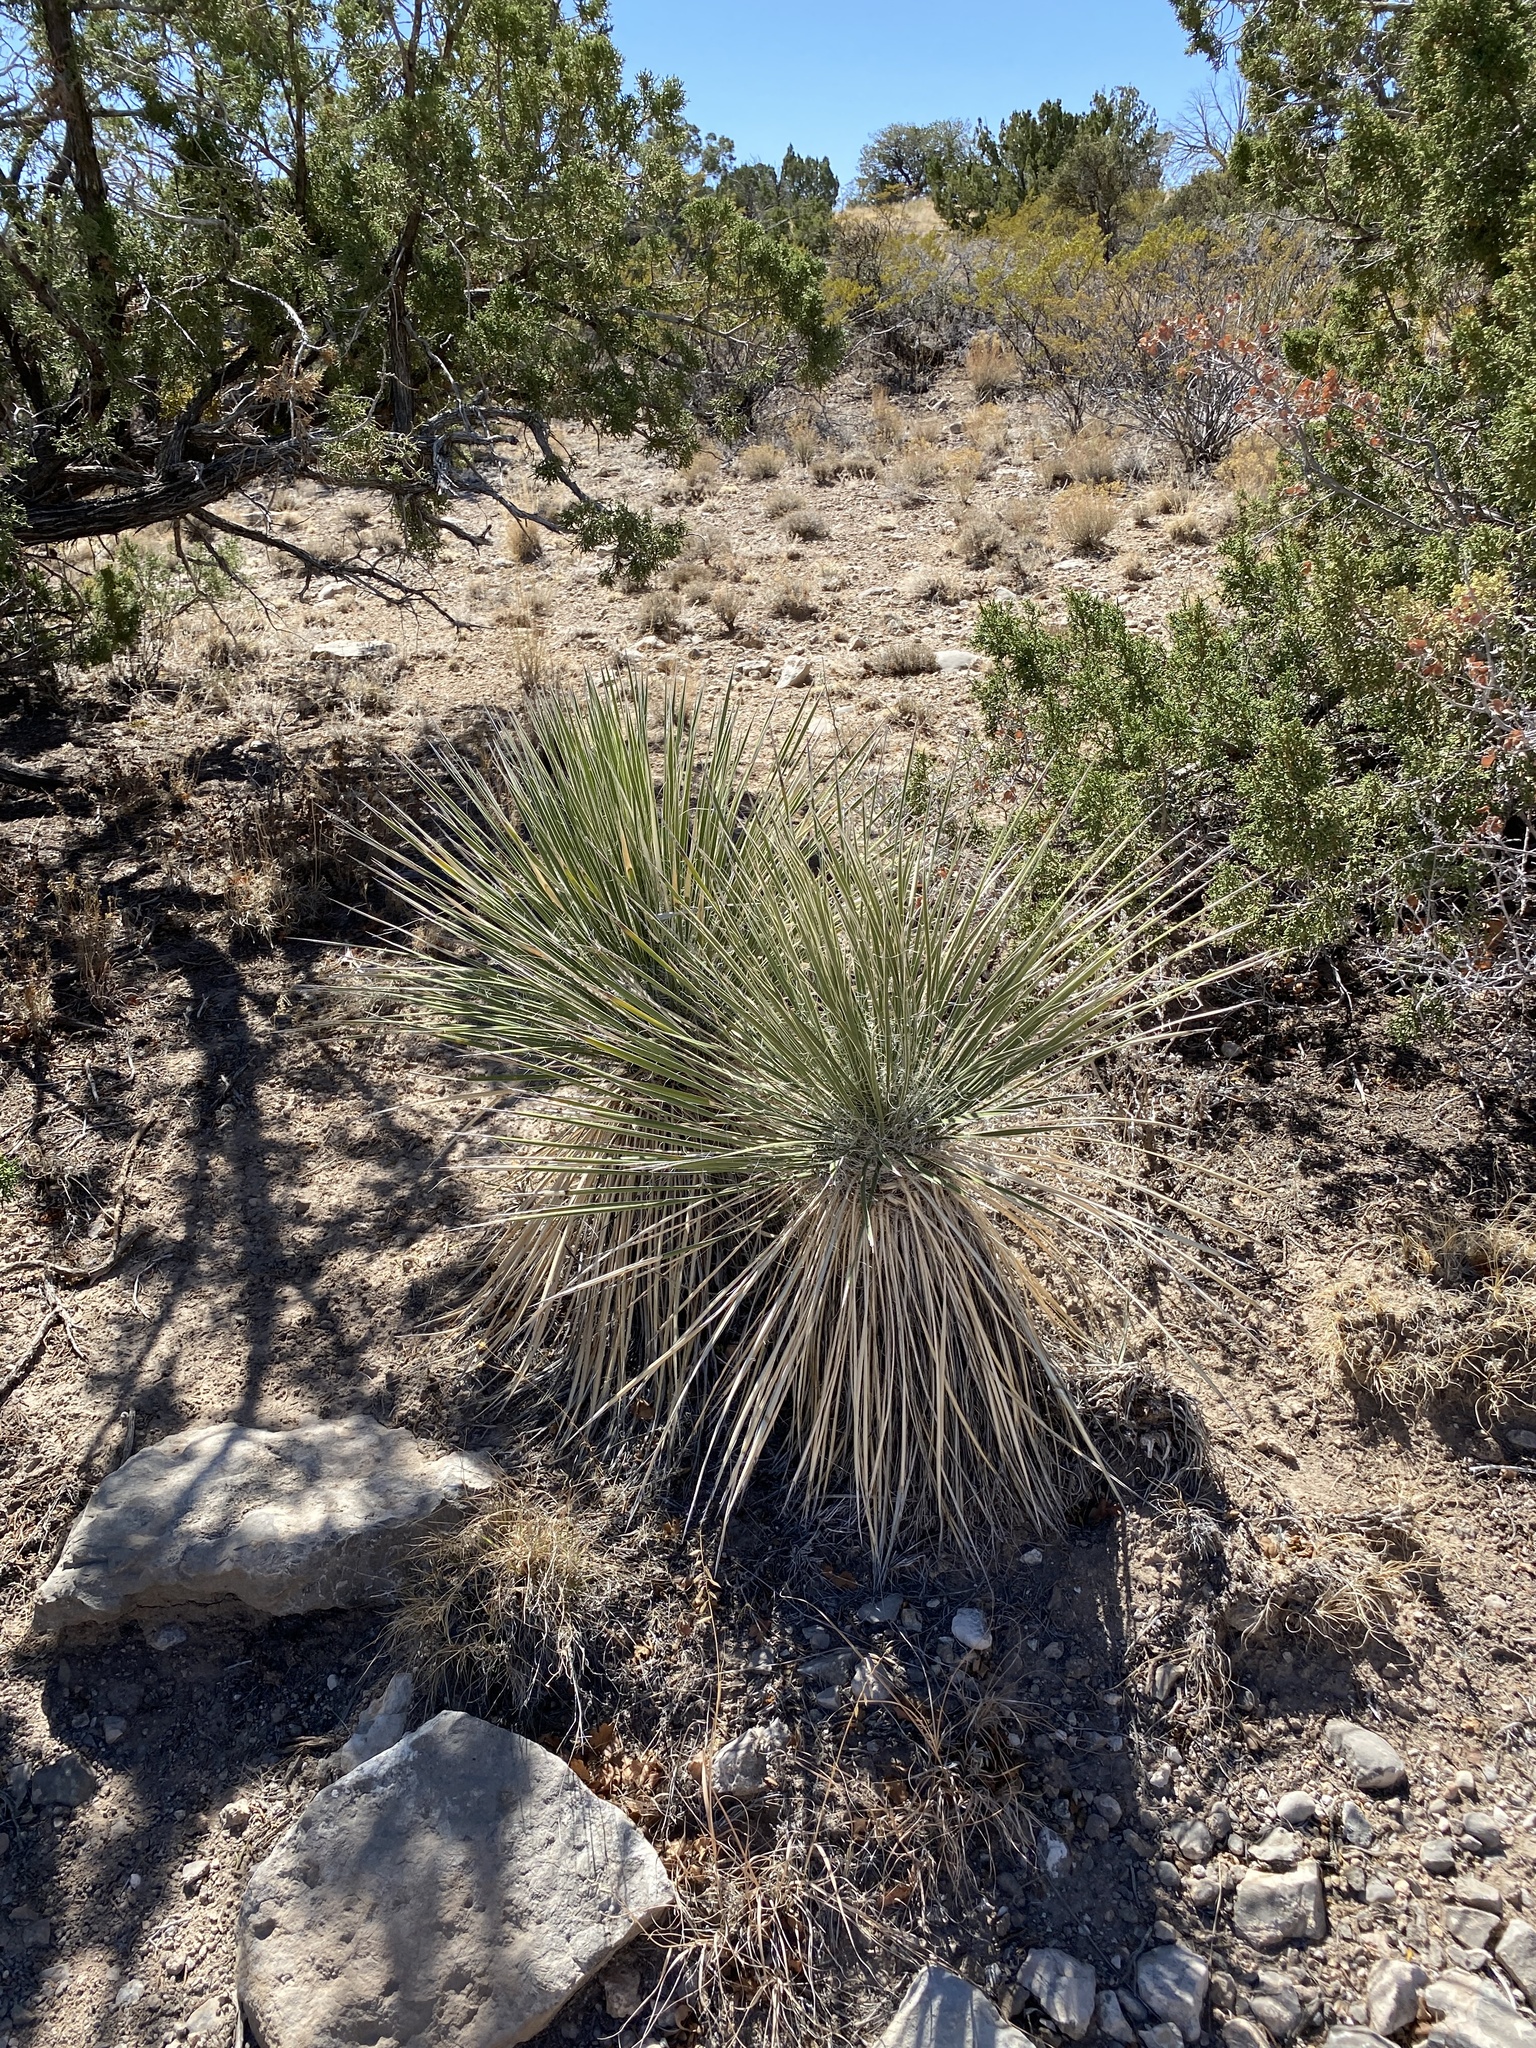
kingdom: Plantae
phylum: Tracheophyta
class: Liliopsida
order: Asparagales
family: Asparagaceae
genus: Yucca
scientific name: Yucca elata
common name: Palmella
